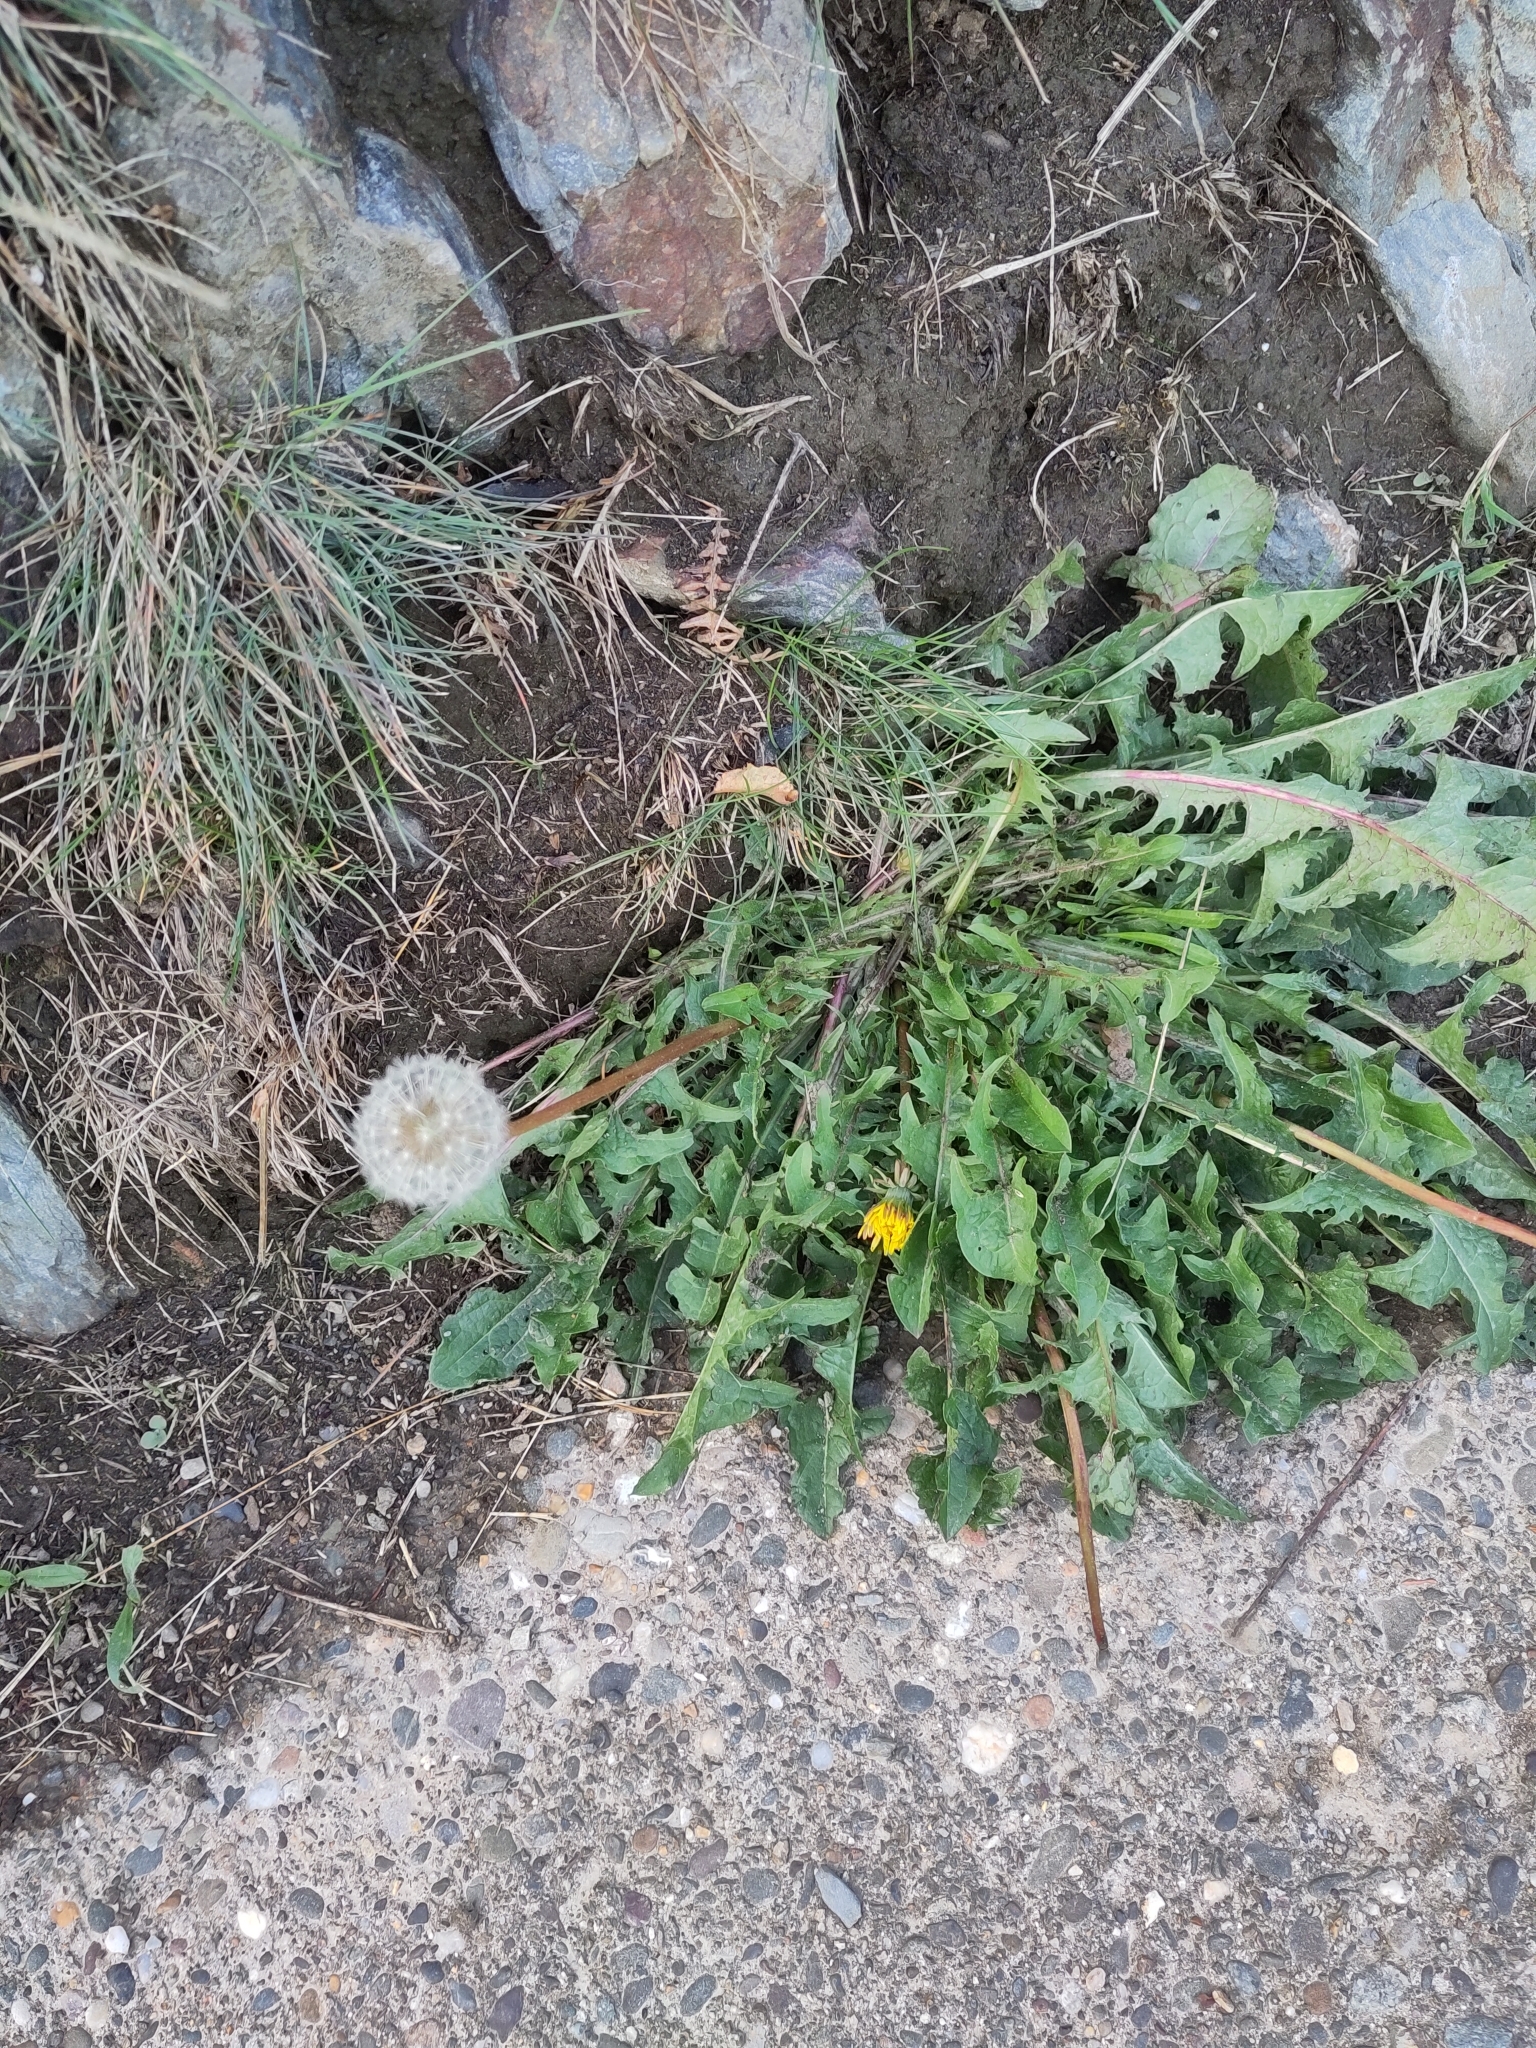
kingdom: Plantae
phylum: Tracheophyta
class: Magnoliopsida
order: Asterales
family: Asteraceae
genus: Taraxacum
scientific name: Taraxacum officinale
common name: Common dandelion
